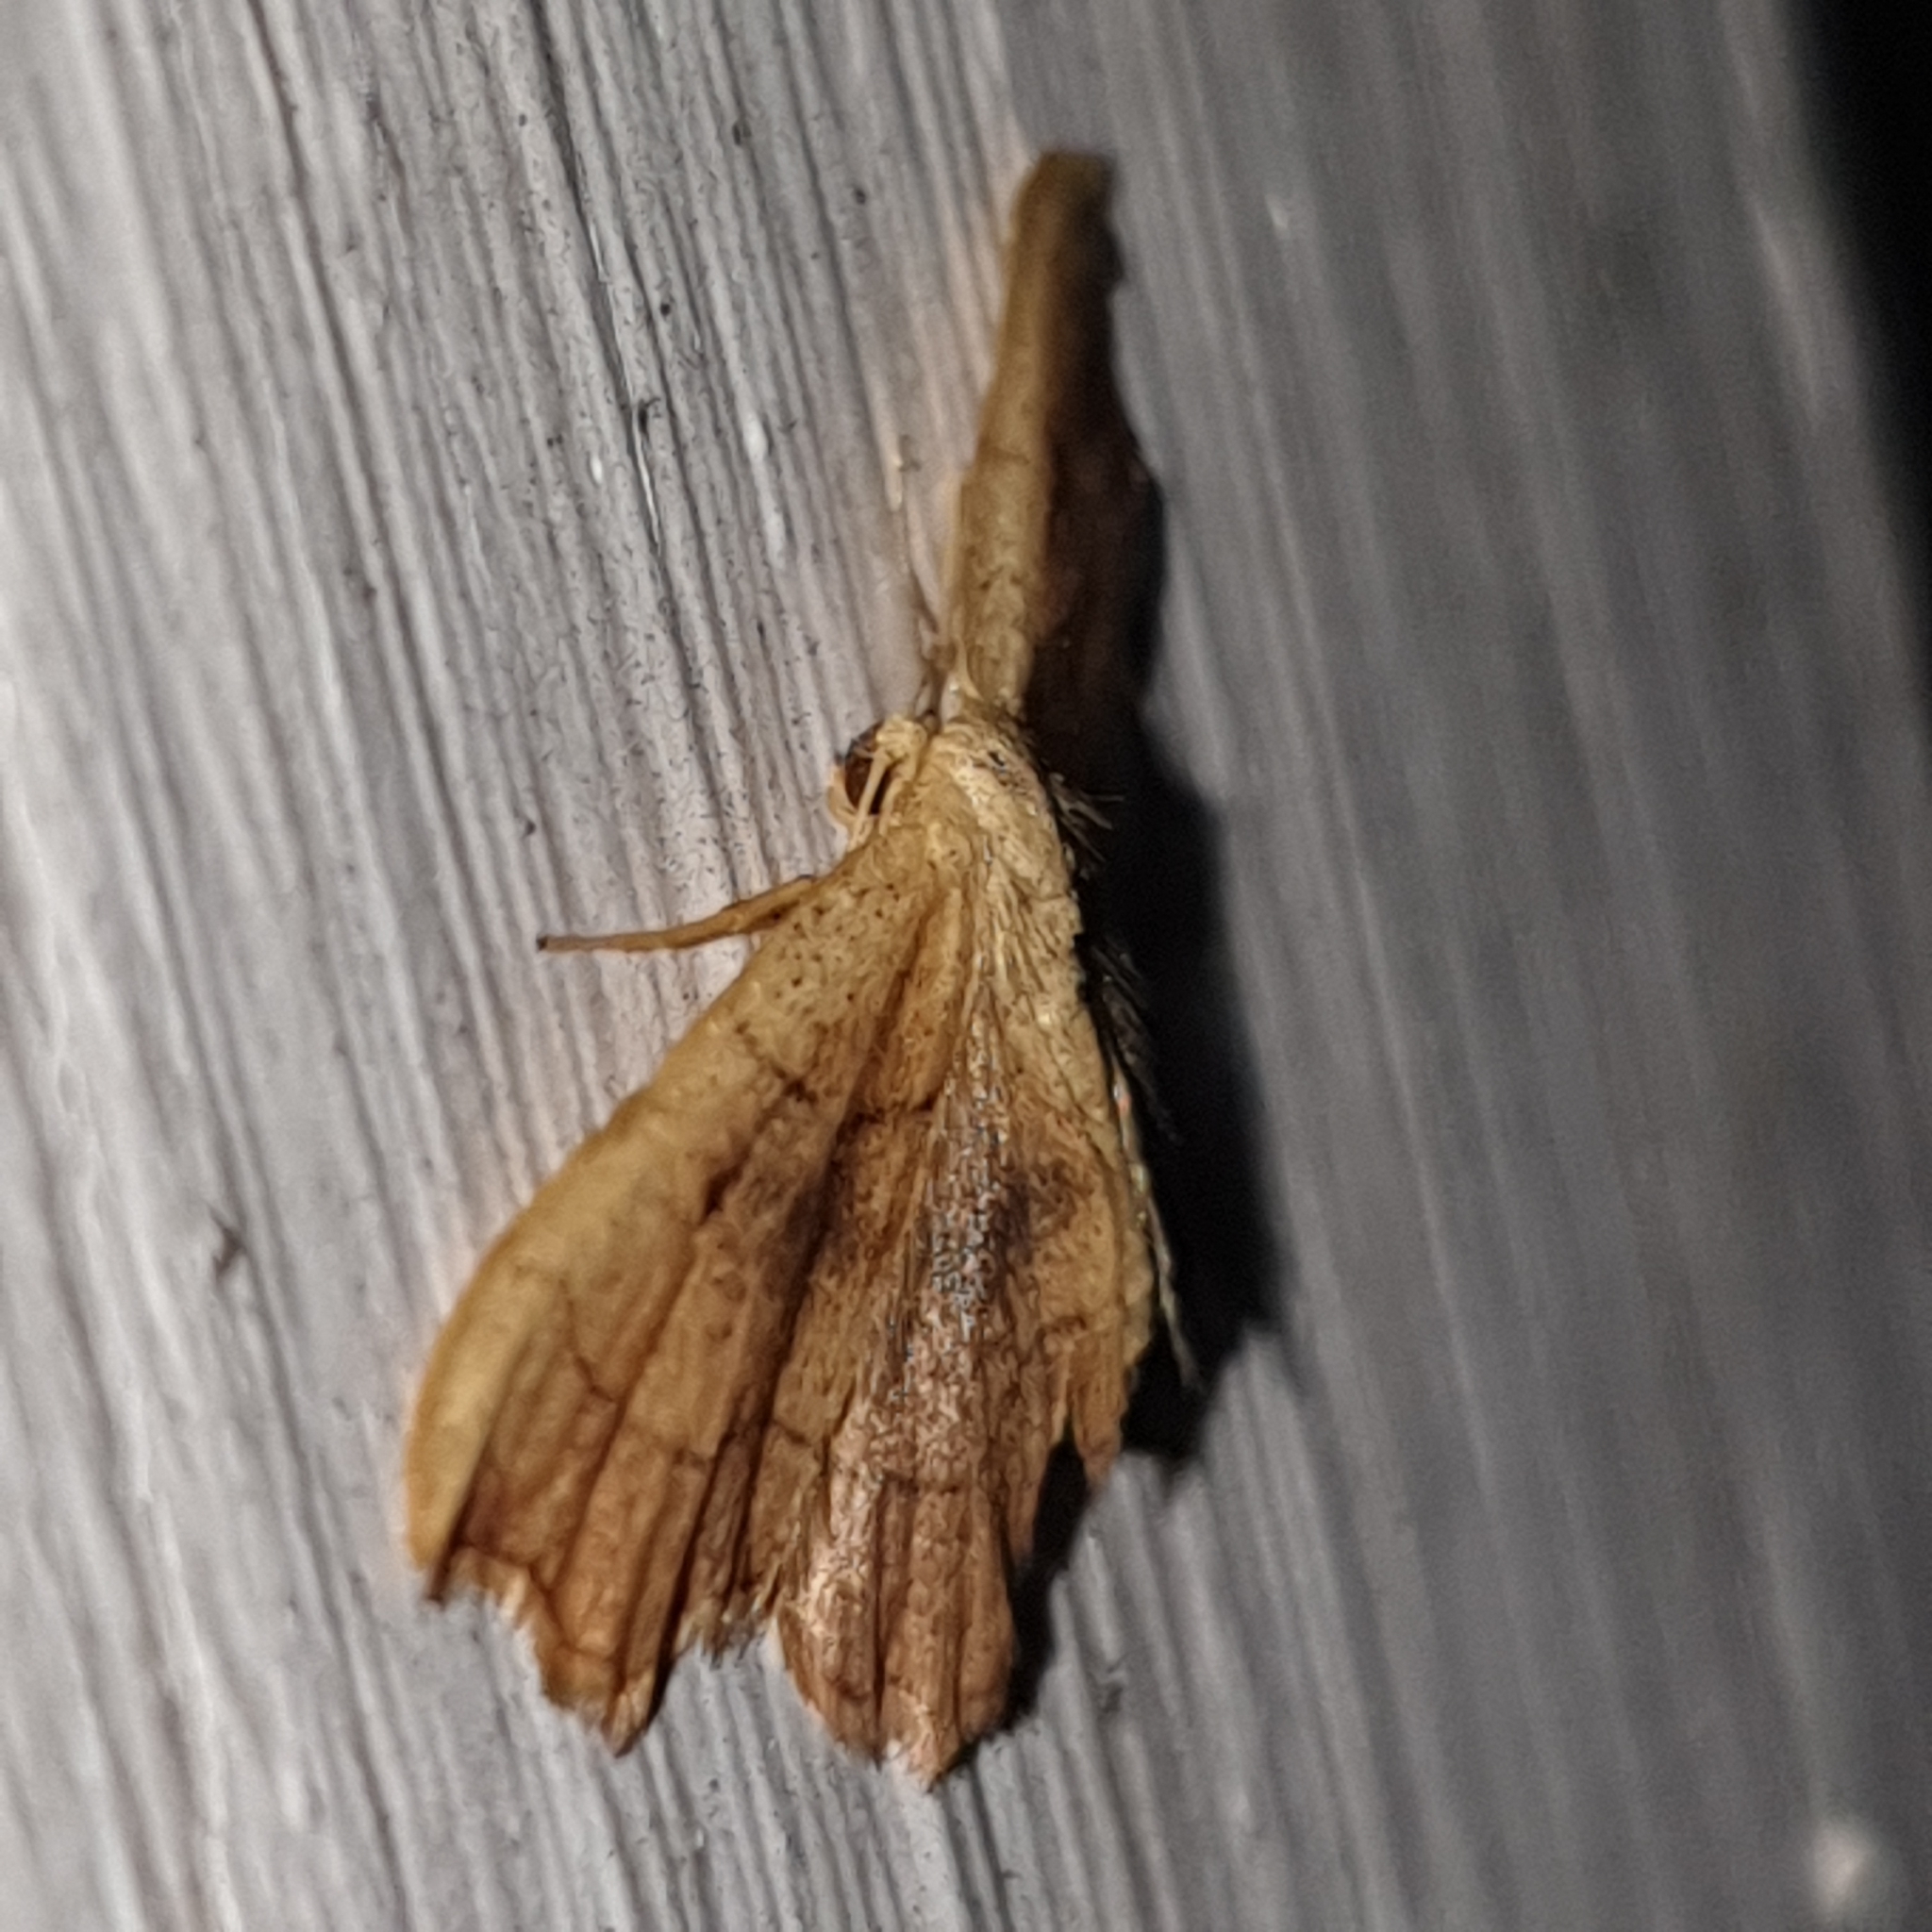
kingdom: Animalia
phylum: Arthropoda
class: Insecta
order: Lepidoptera
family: Geometridae
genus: Idaea
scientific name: Idaea emarginata
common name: Small scallop
